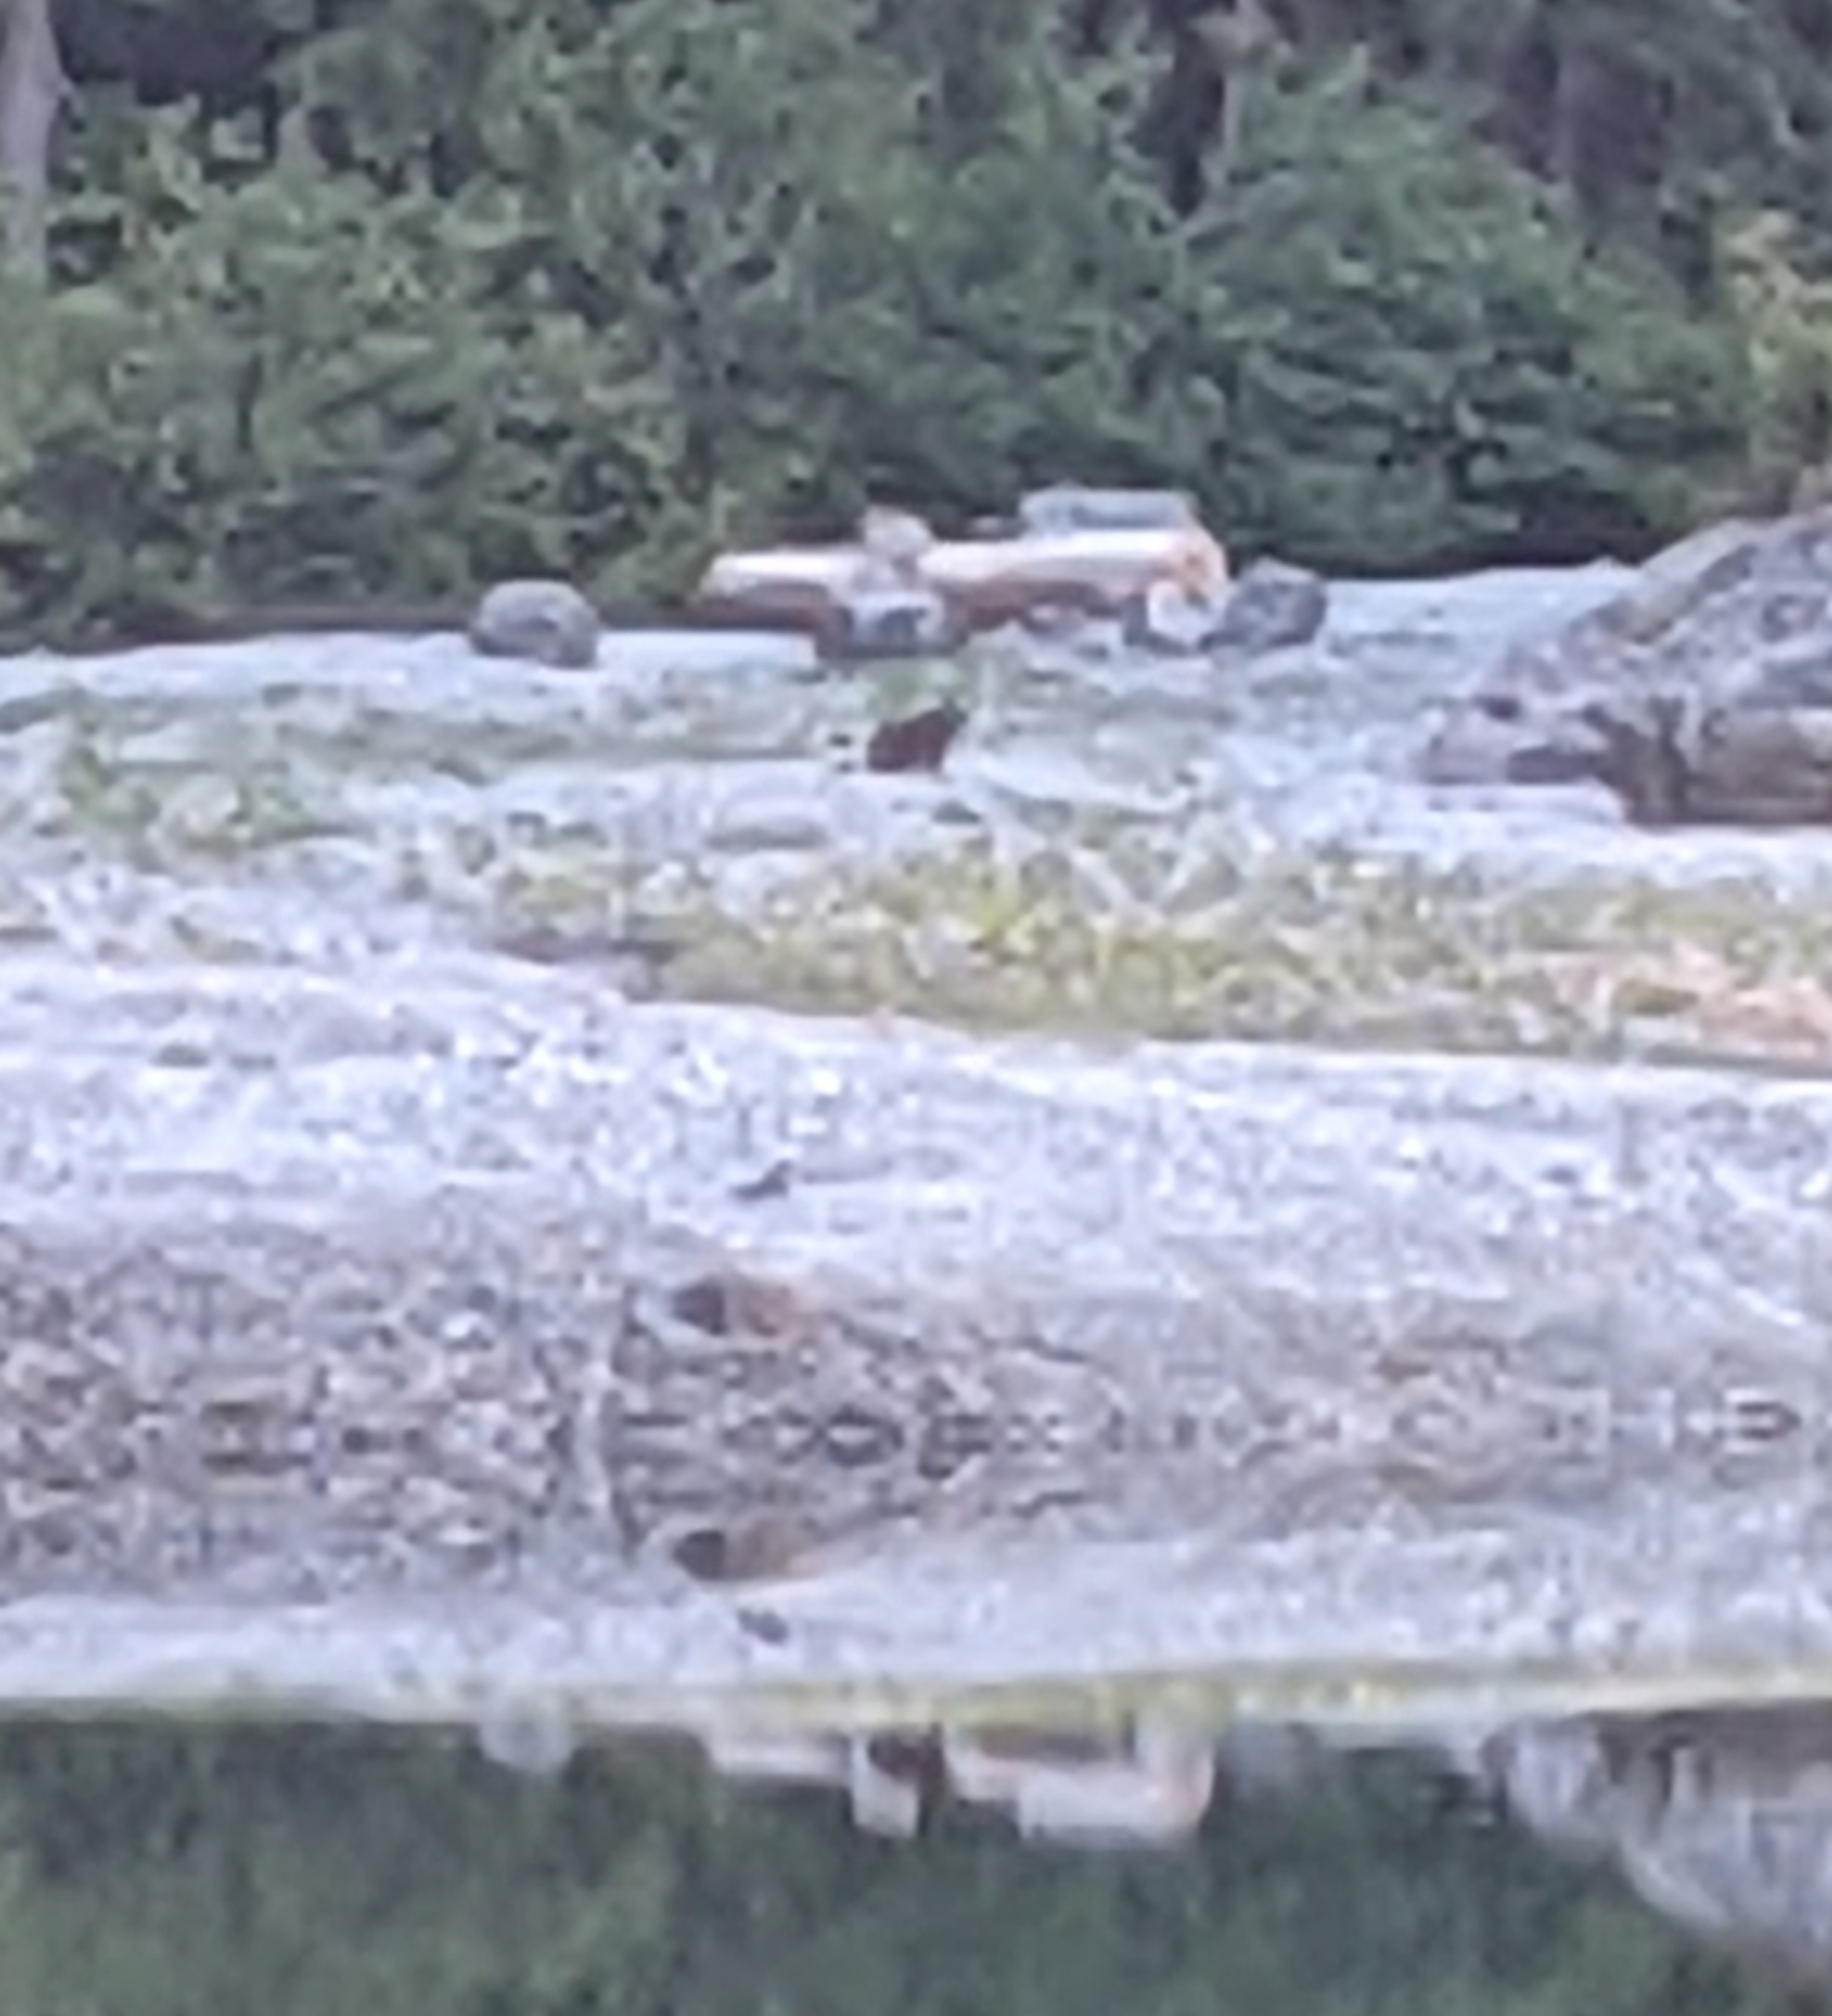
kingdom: Animalia
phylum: Chordata
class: Mammalia
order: Rodentia
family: Sciuridae
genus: Marmota
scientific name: Marmota vancouverensis
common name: Vancouver island marmot
